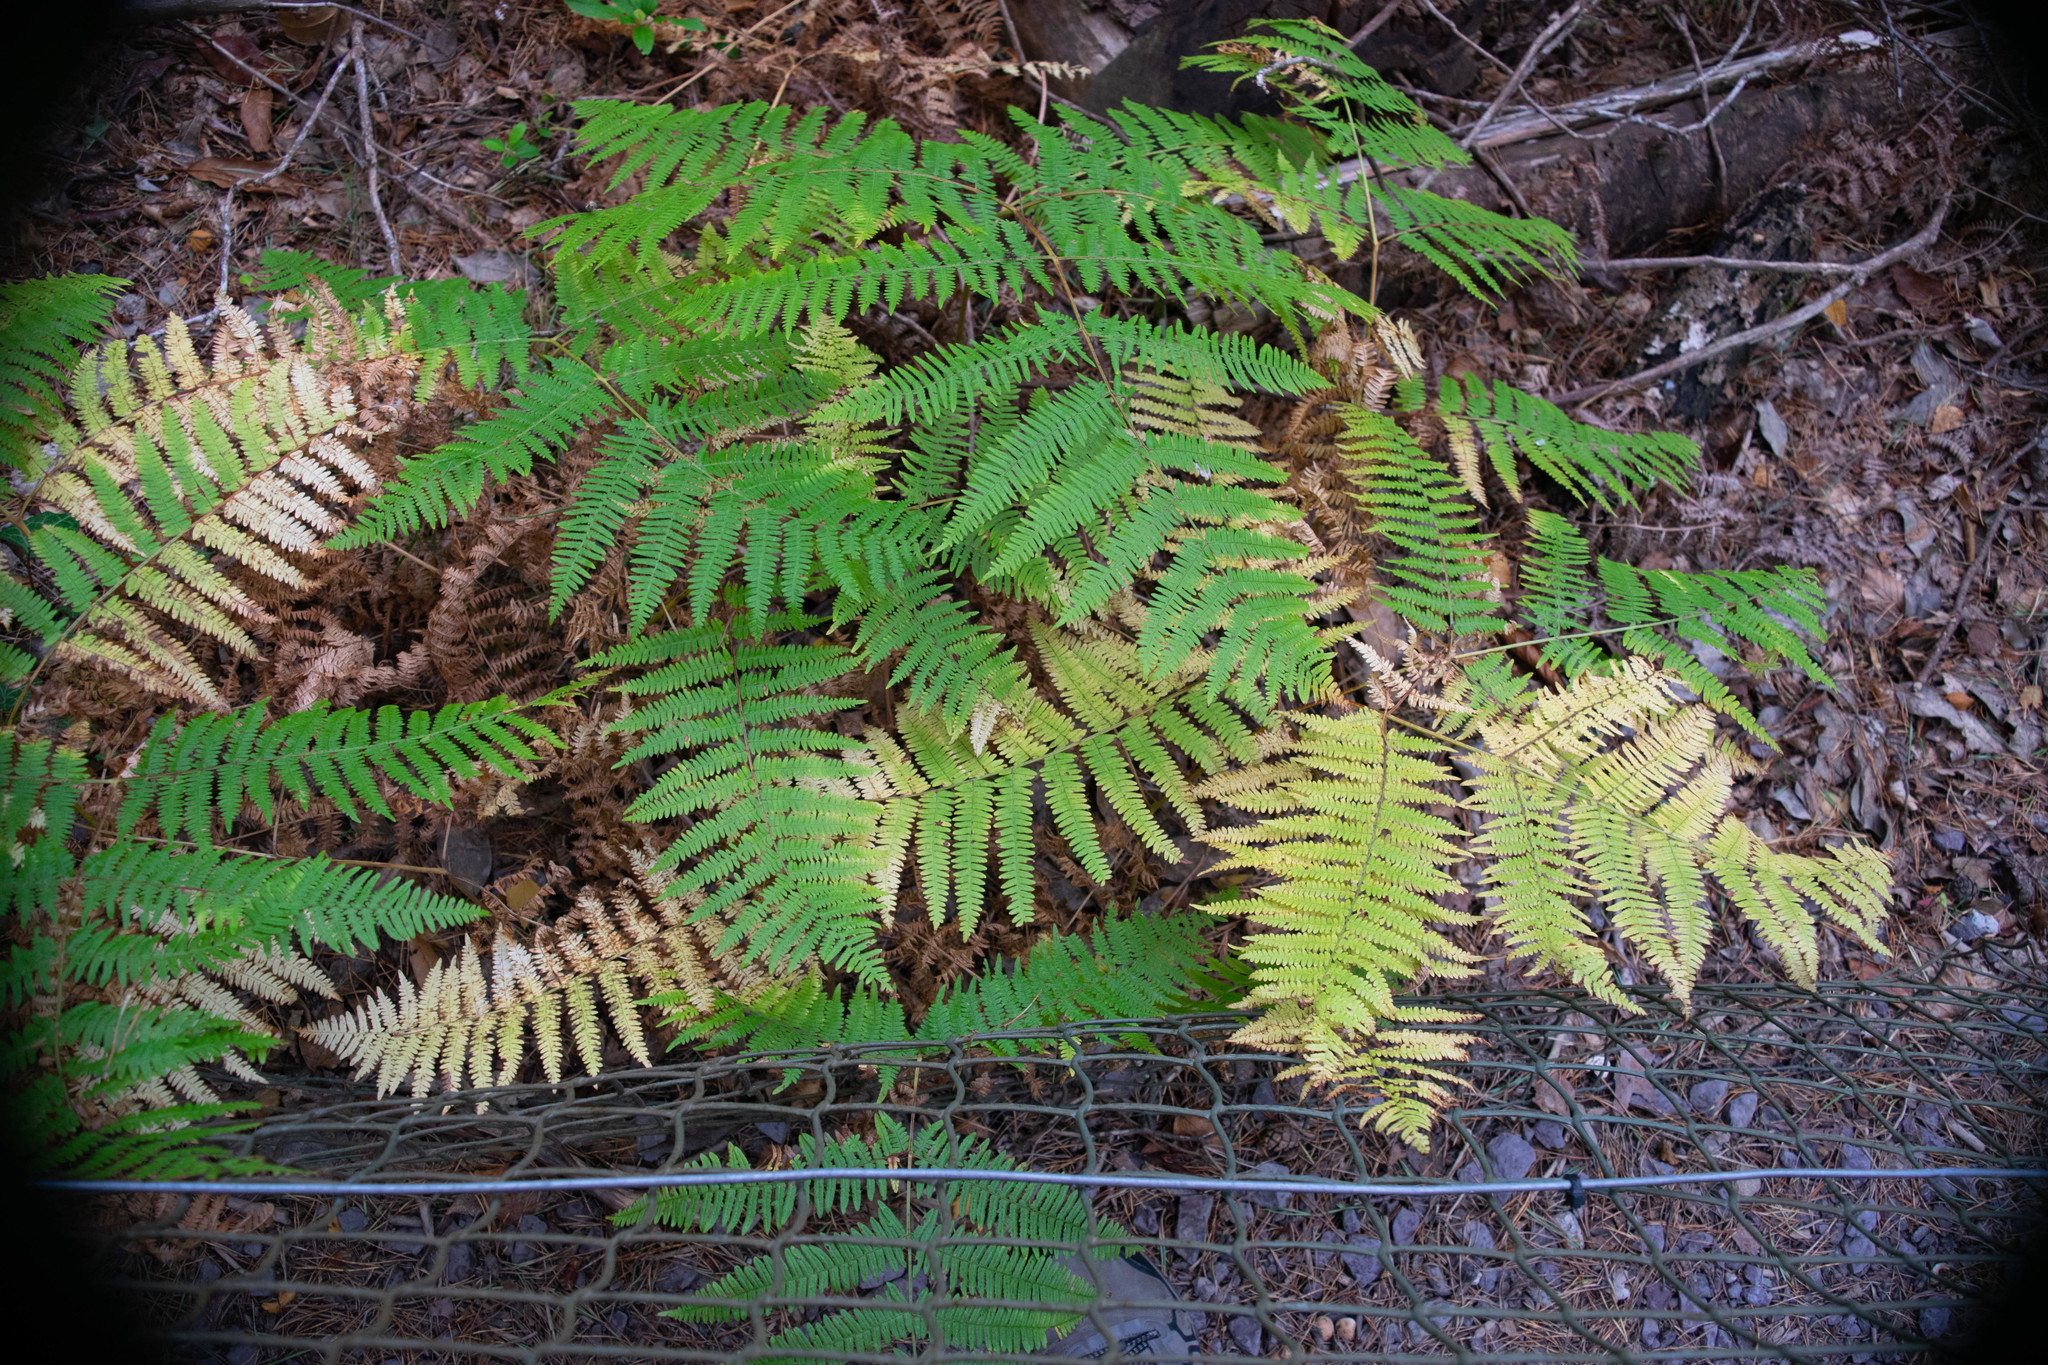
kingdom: Plantae
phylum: Tracheophyta
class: Polypodiopsida
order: Polypodiales
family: Dennstaedtiaceae
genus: Pteridium
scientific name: Pteridium aquilinum
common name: Bracken
